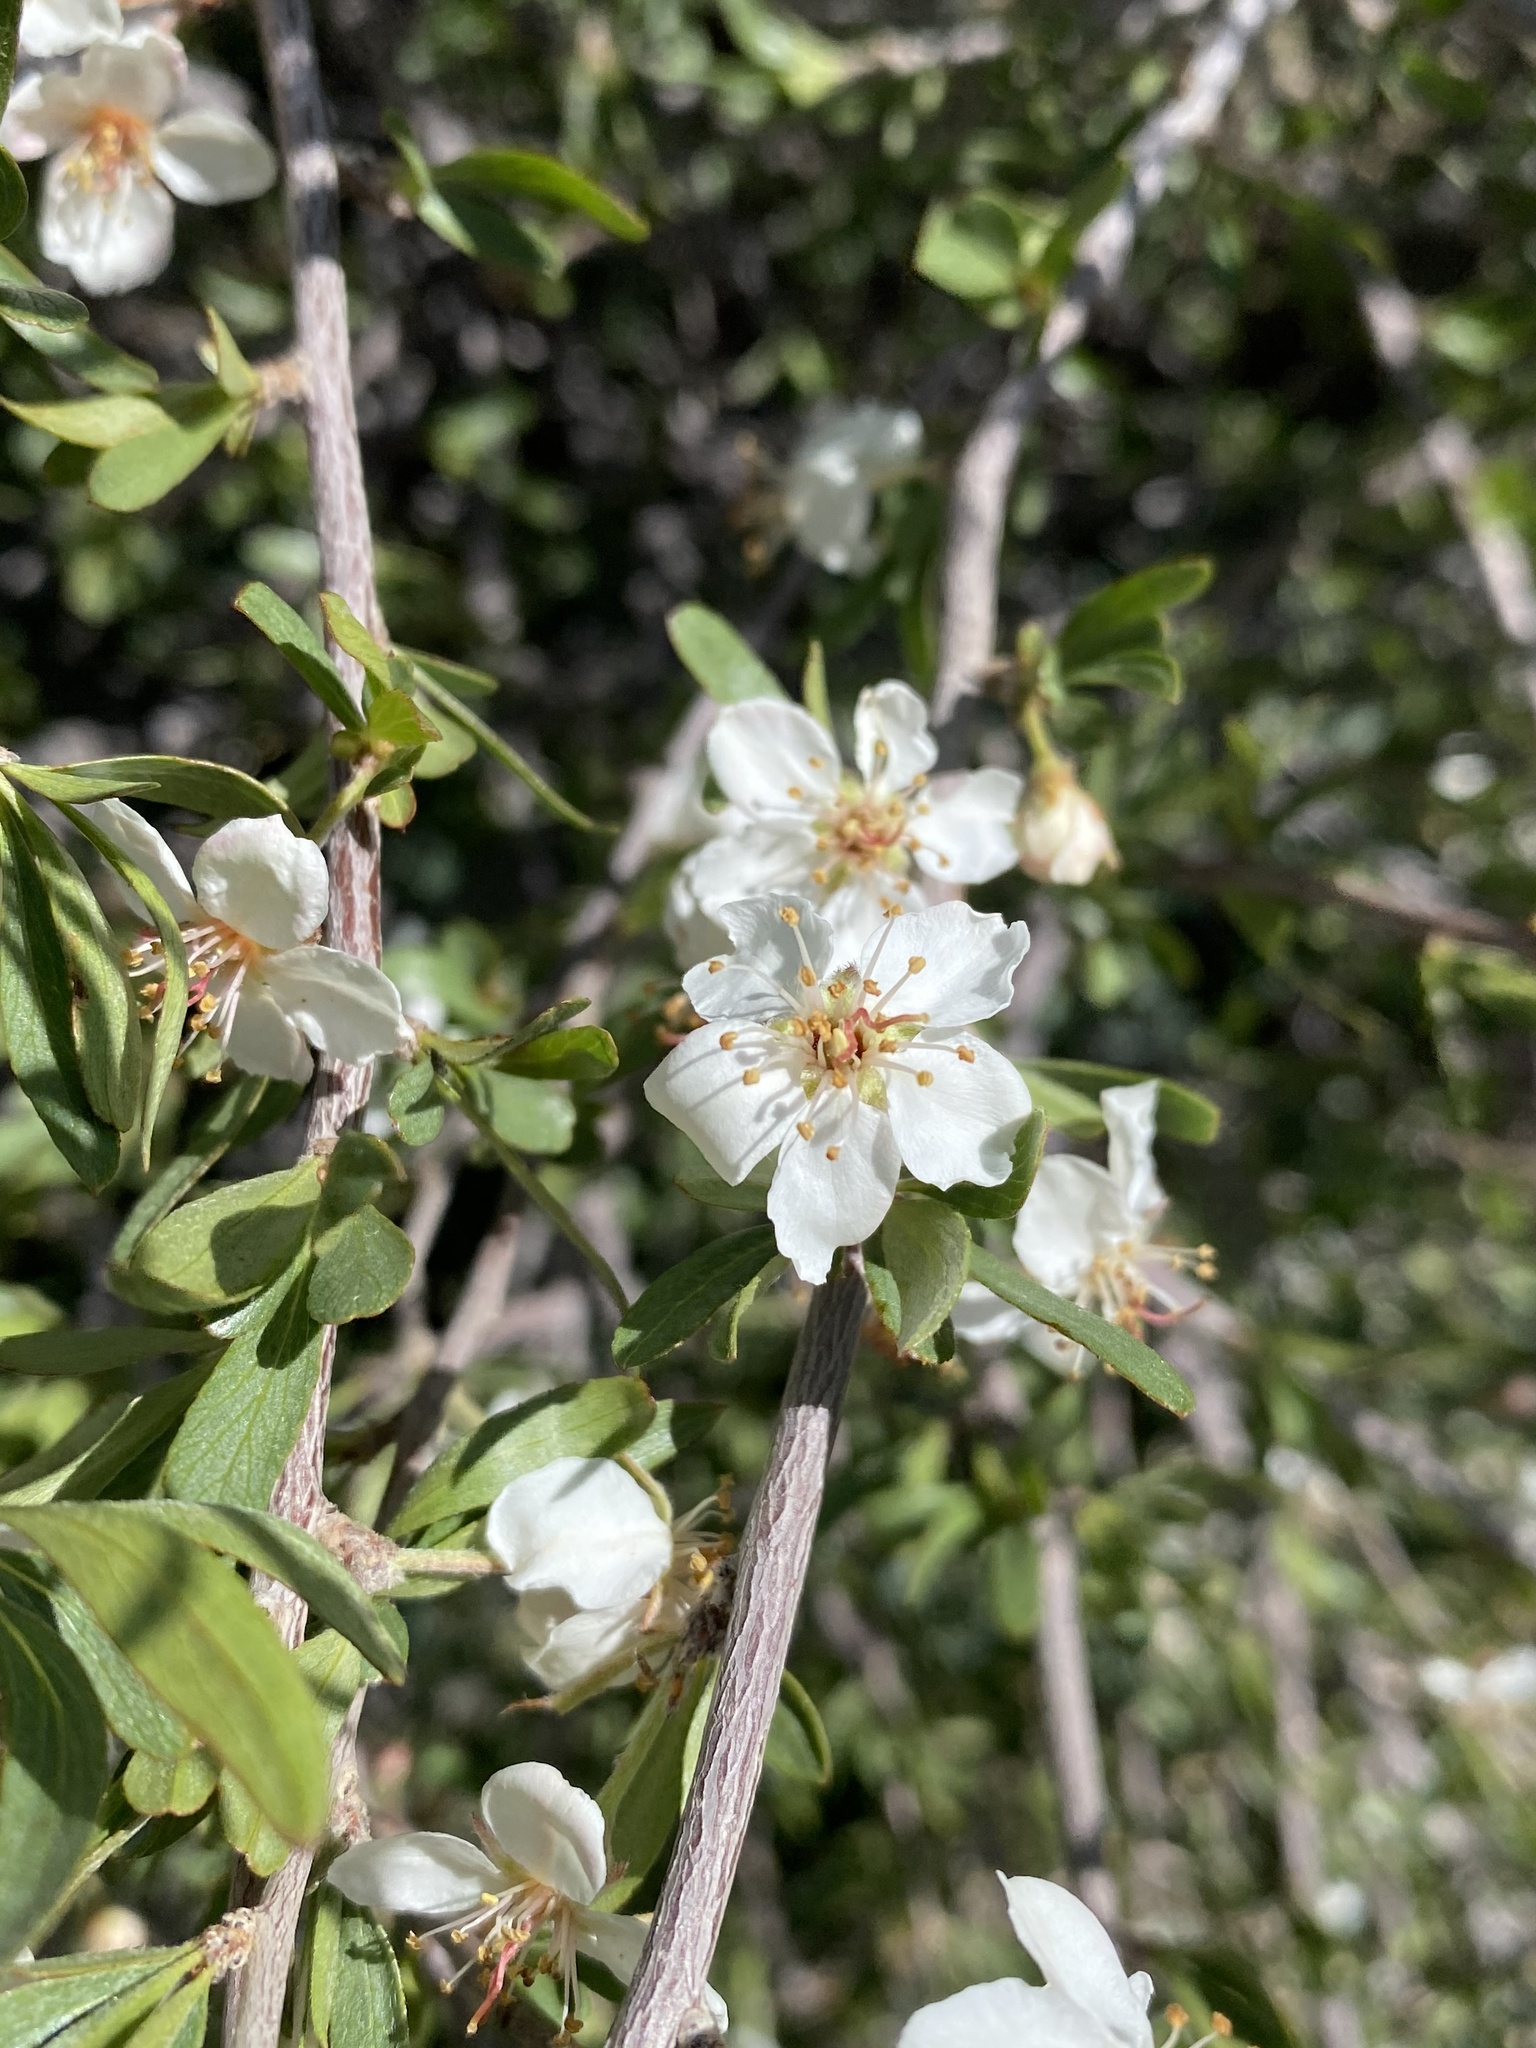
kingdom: Plantae
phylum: Tracheophyta
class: Magnoliopsida
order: Rosales
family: Rosaceae
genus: Amelanchier
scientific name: Amelanchier ramosissima
